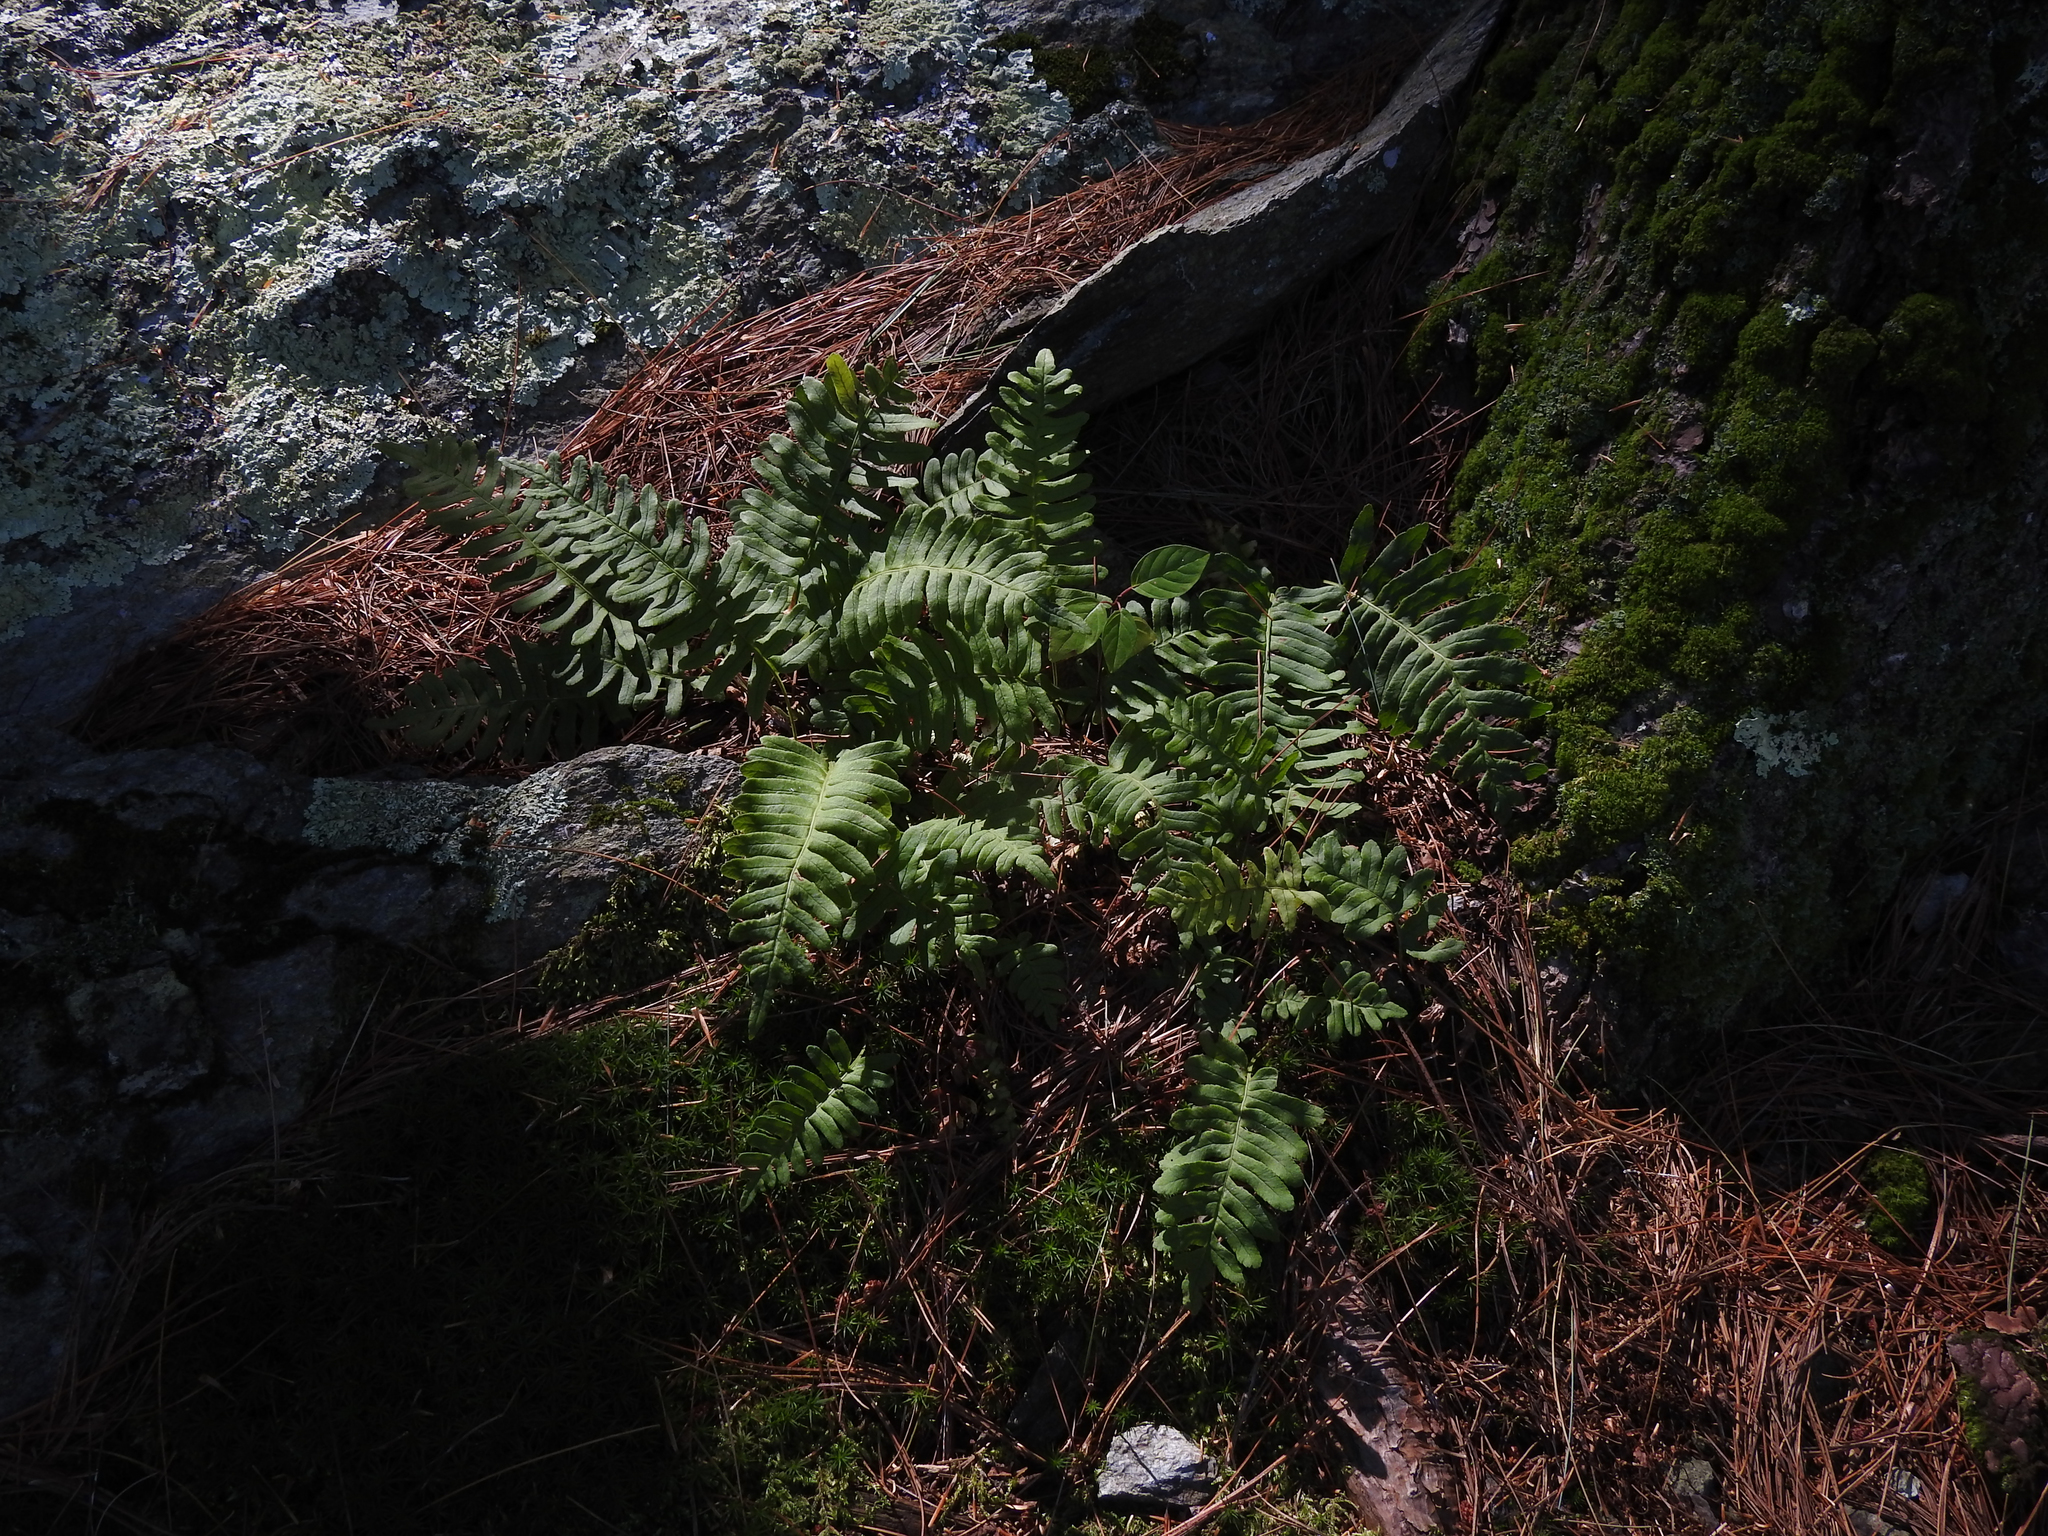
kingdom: Plantae
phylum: Tracheophyta
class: Polypodiopsida
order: Polypodiales
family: Polypodiaceae
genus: Polypodium
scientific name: Polypodium virginianum
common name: American wall fern
